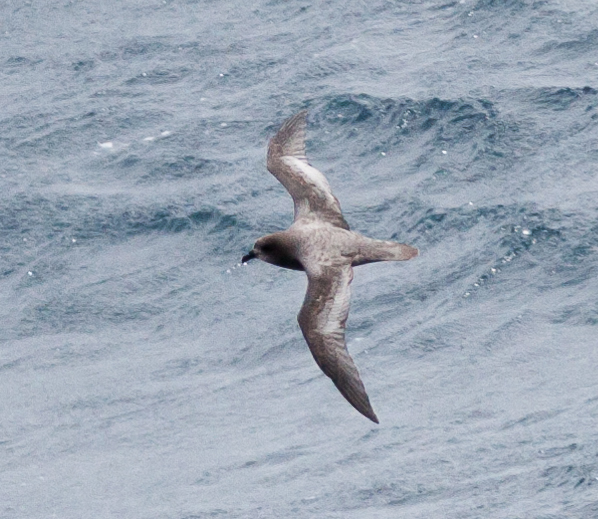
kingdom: Animalia
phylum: Chordata
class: Aves
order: Procellariiformes
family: Procellariidae
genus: Pterodroma
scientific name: Pterodroma ultima
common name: Murphy's petrel
